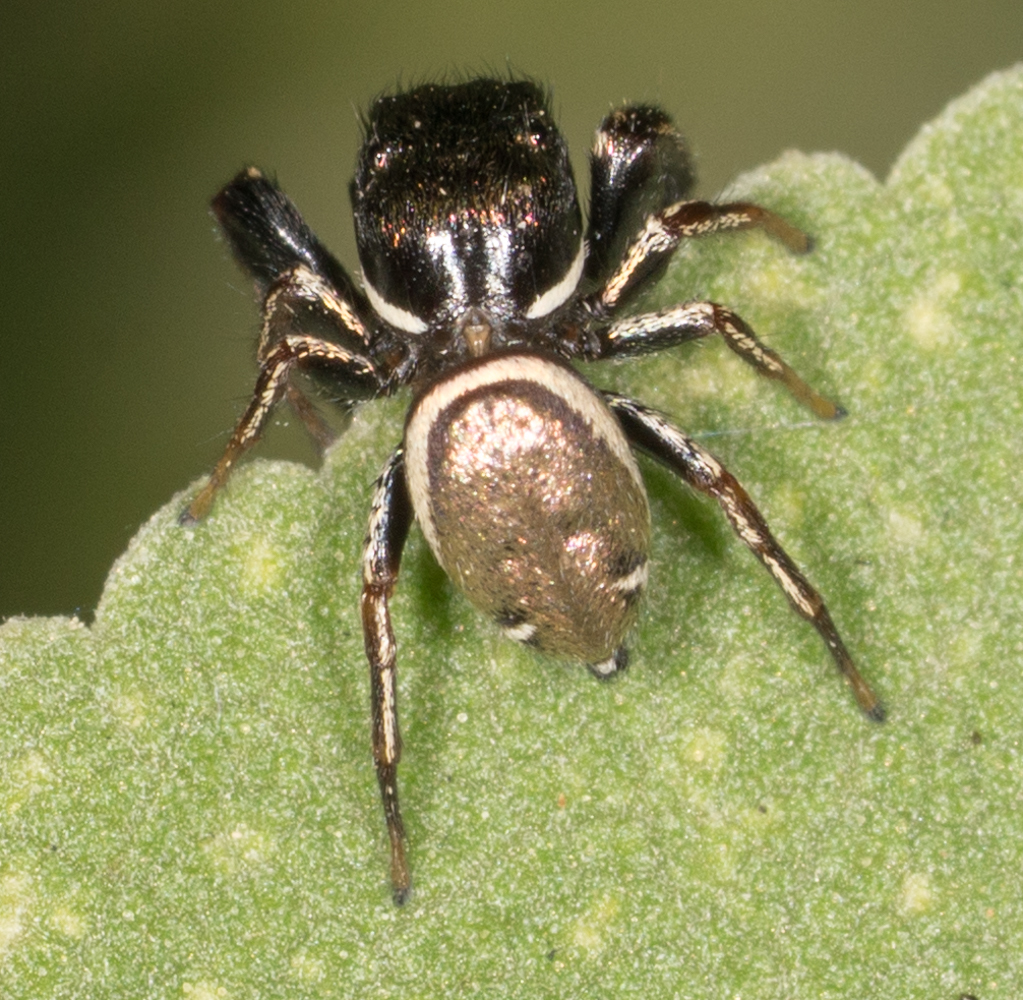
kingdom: Animalia
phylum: Arthropoda
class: Arachnida
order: Araneae
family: Salticidae
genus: Sassacus
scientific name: Sassacus vitis
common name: Jumping spiders
